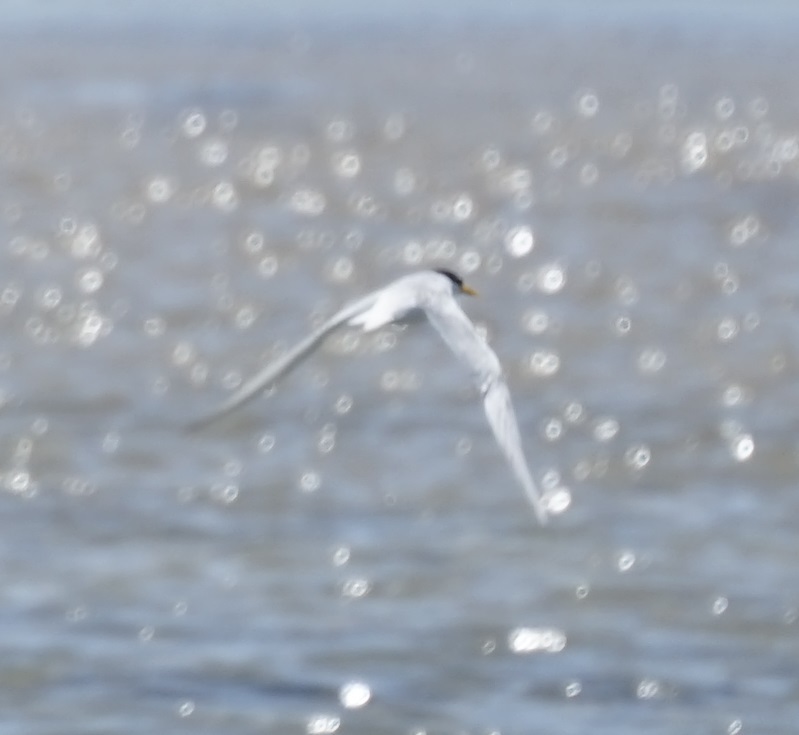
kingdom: Animalia
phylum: Chordata
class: Aves
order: Charadriiformes
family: Laridae
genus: Thalasseus
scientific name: Thalasseus bergii
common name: Greater crested tern
